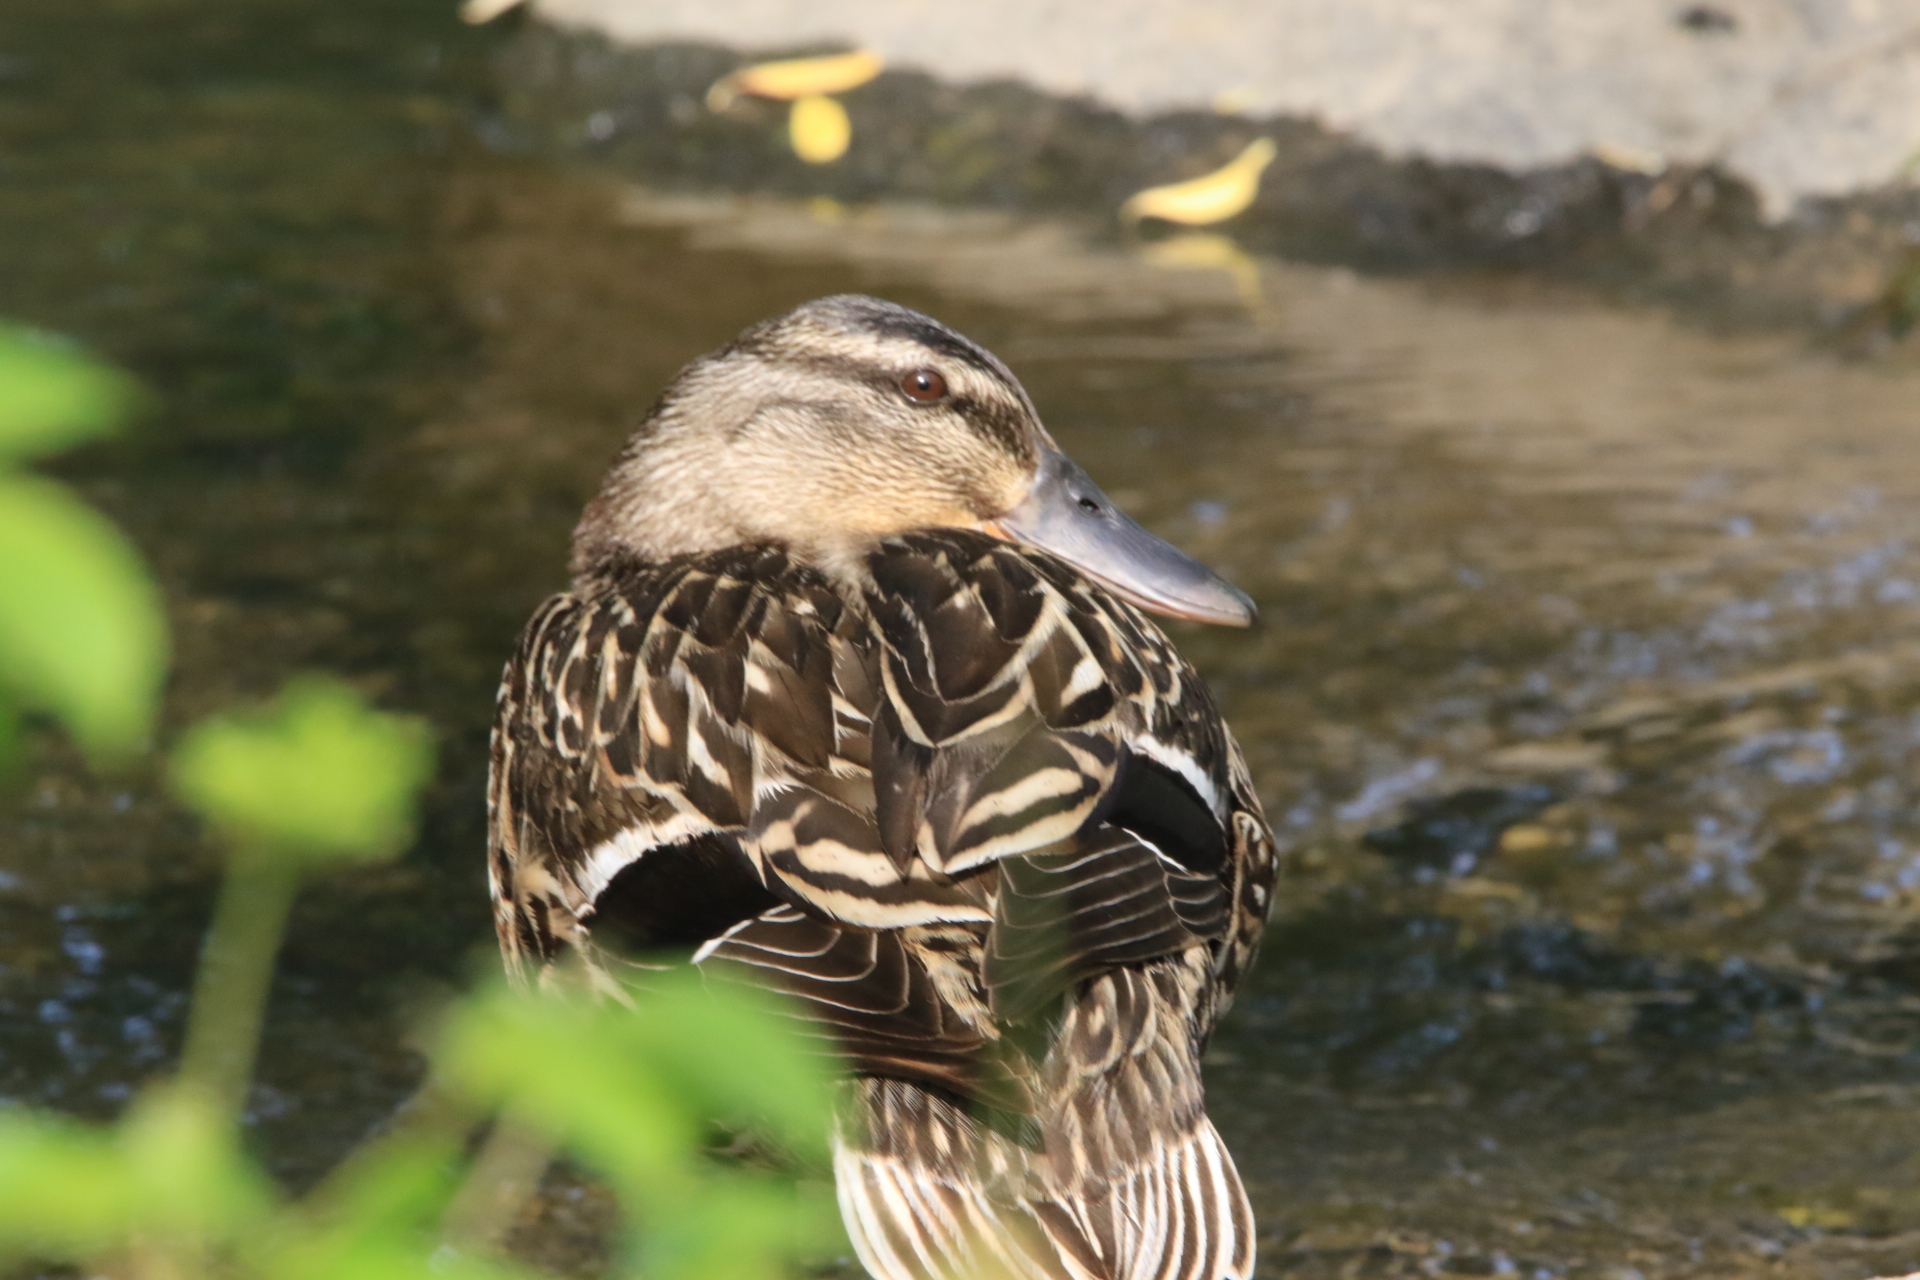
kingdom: Animalia
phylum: Chordata
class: Aves
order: Anseriformes
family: Anatidae
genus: Anas
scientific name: Anas platyrhynchos
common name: Mallard
